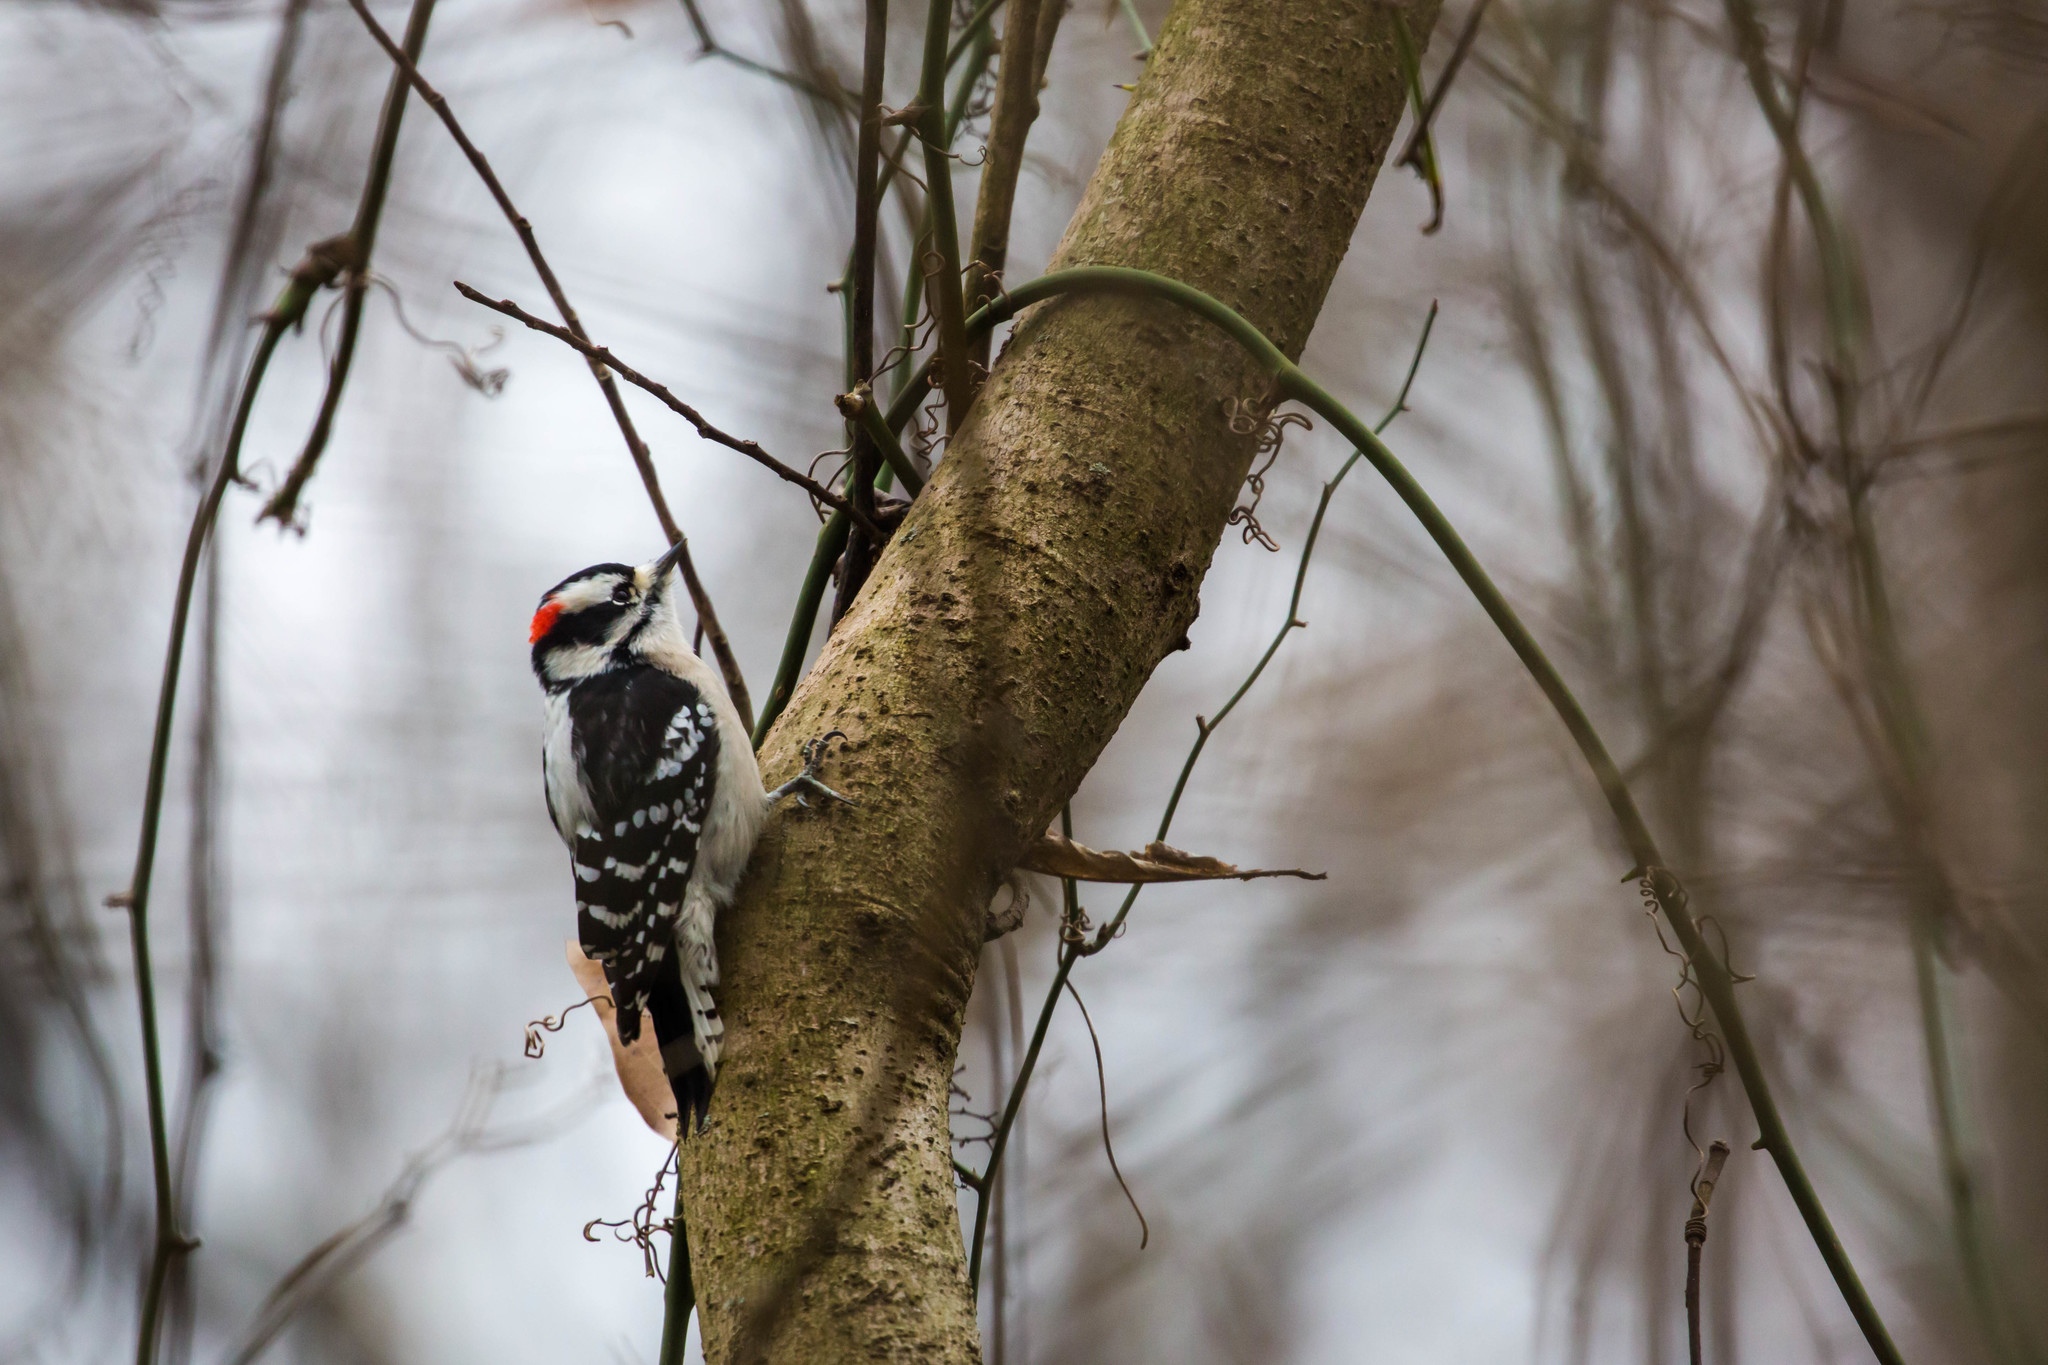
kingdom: Animalia
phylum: Chordata
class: Aves
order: Piciformes
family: Picidae
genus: Dryobates
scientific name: Dryobates pubescens
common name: Downy woodpecker
